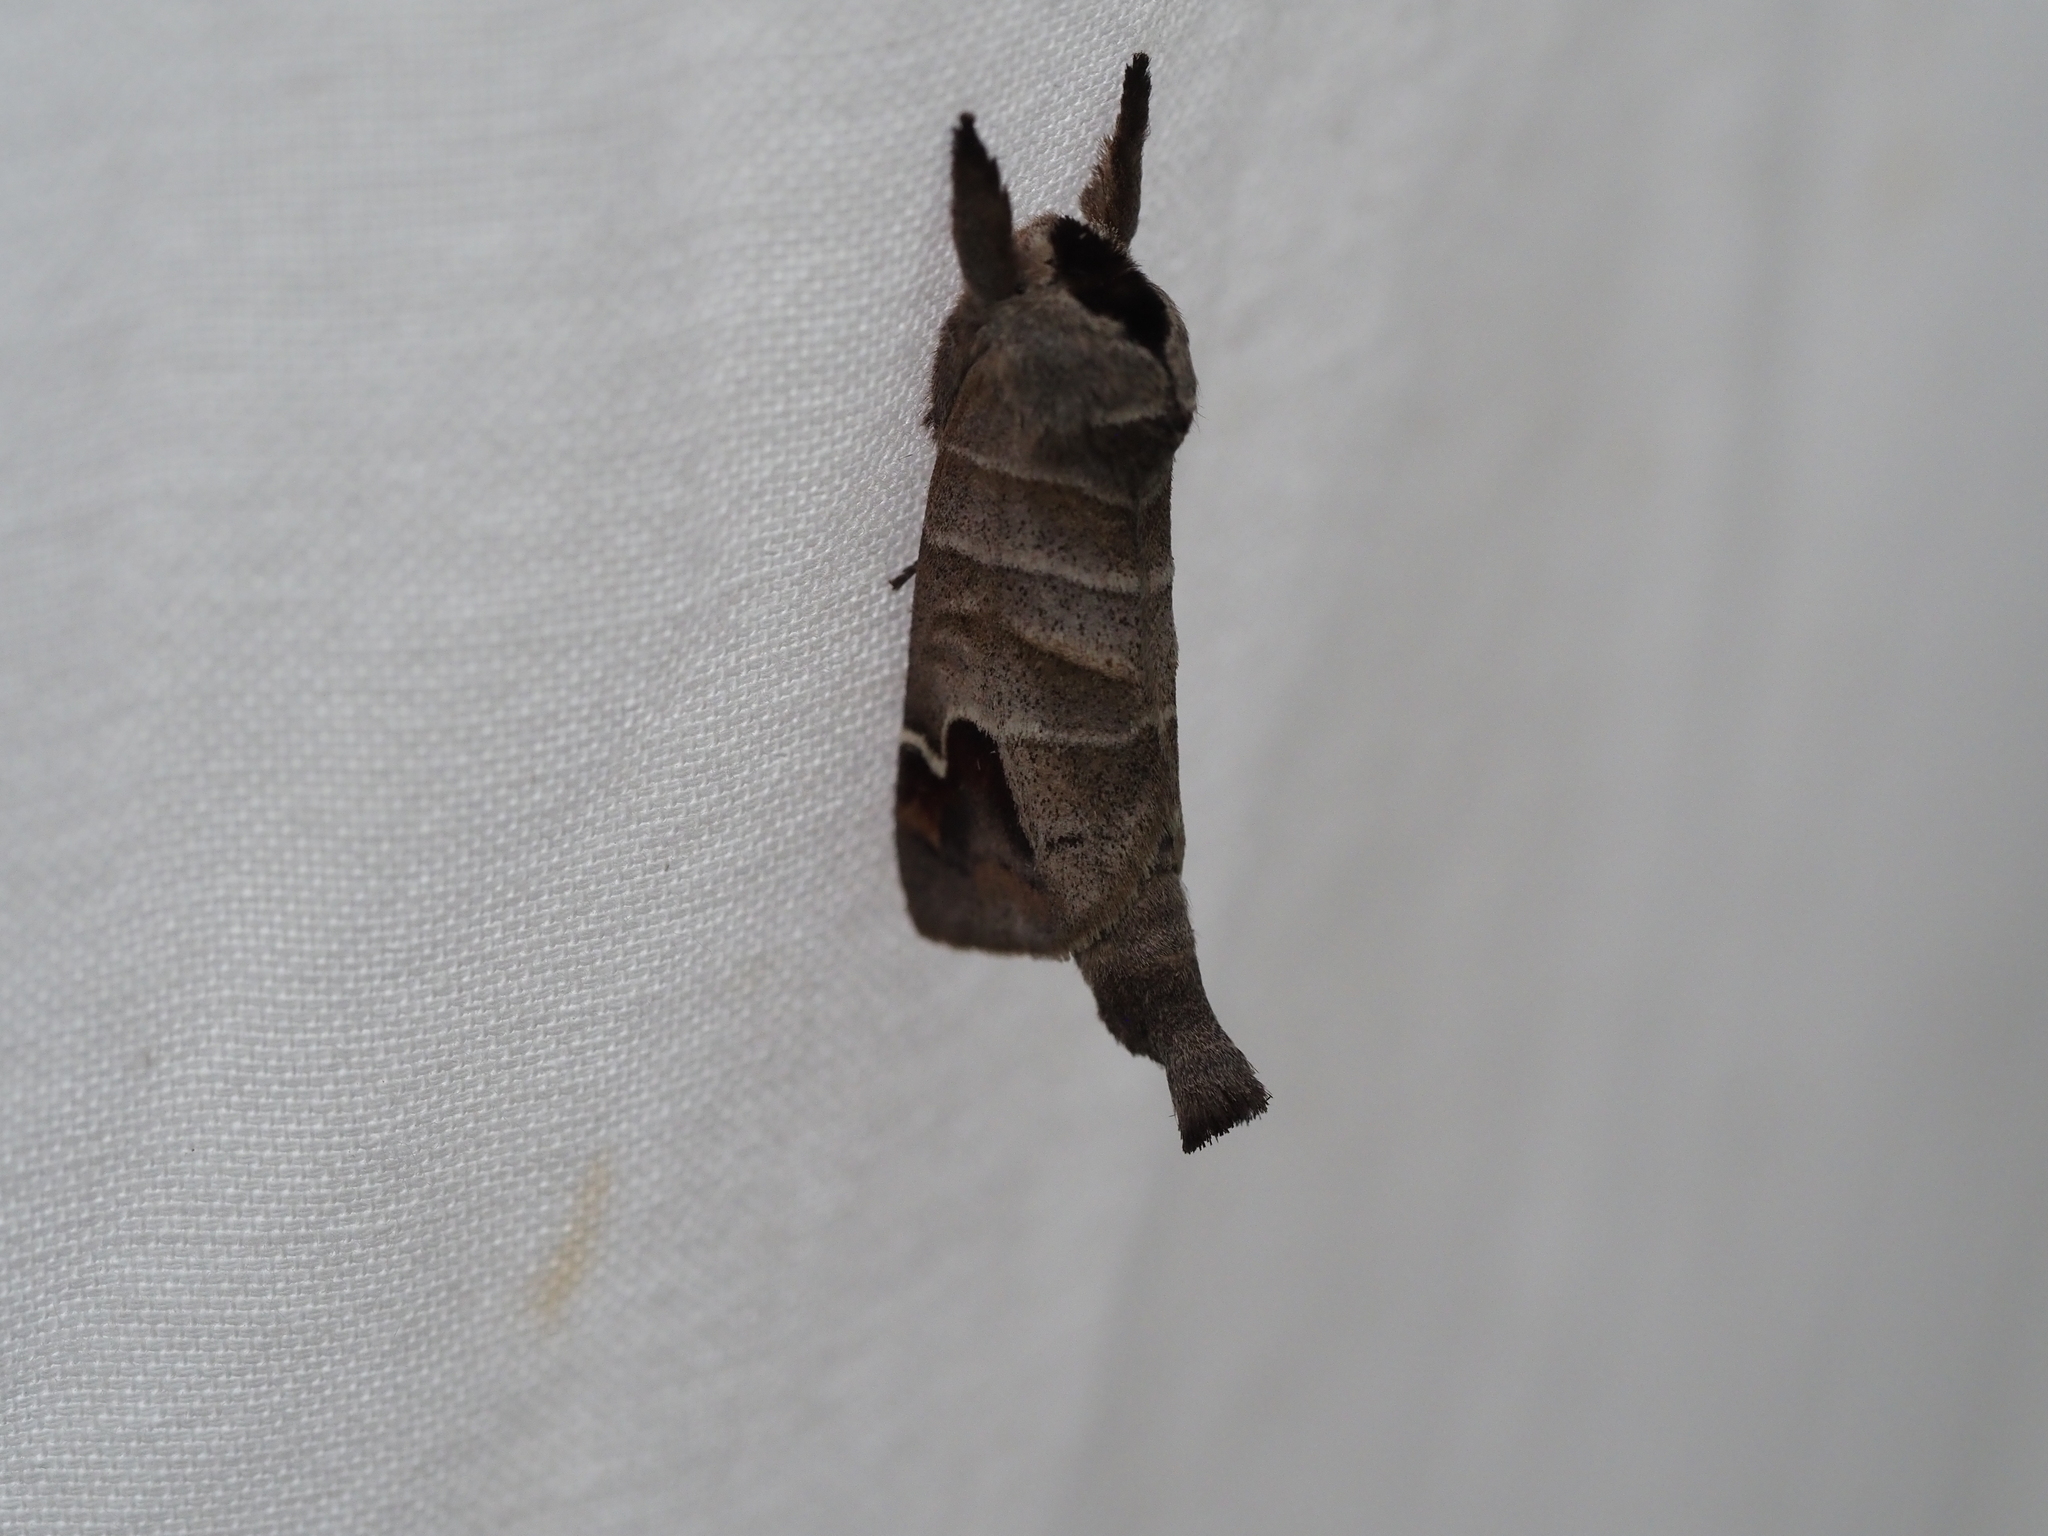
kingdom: Animalia
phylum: Arthropoda
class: Insecta
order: Lepidoptera
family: Notodontidae
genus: Clostera
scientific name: Clostera albosigma
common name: Sigmoid prominent
